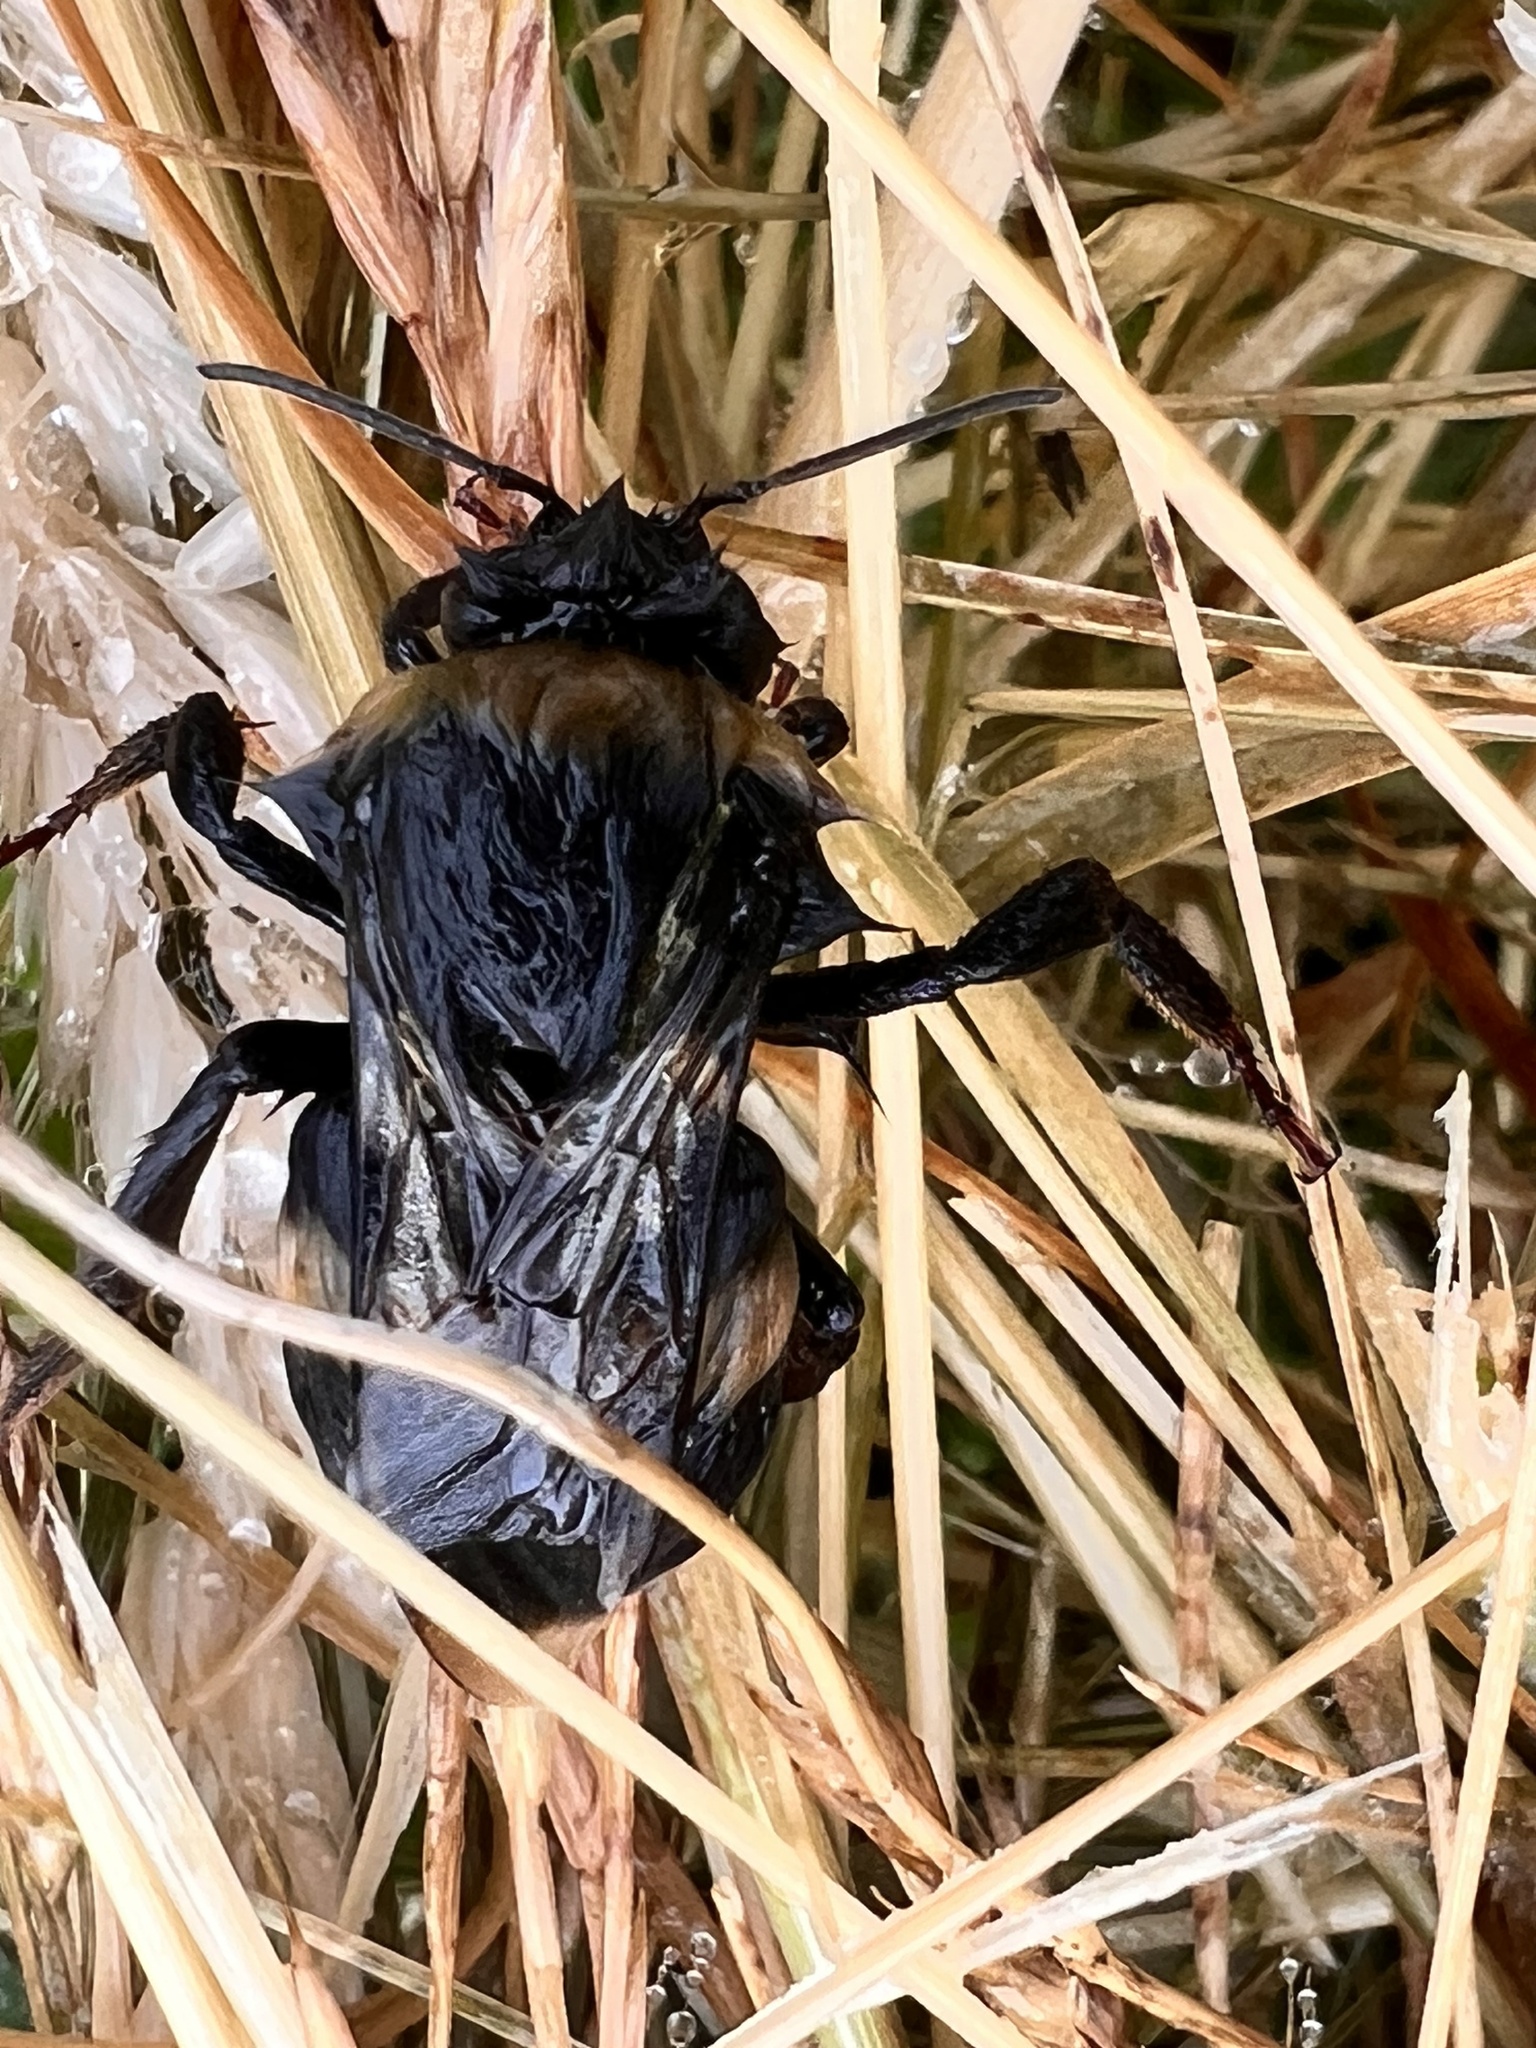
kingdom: Animalia
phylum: Arthropoda
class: Insecta
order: Hymenoptera
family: Apidae
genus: Bombus
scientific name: Bombus terrestris
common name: Buff-tailed bumblebee
